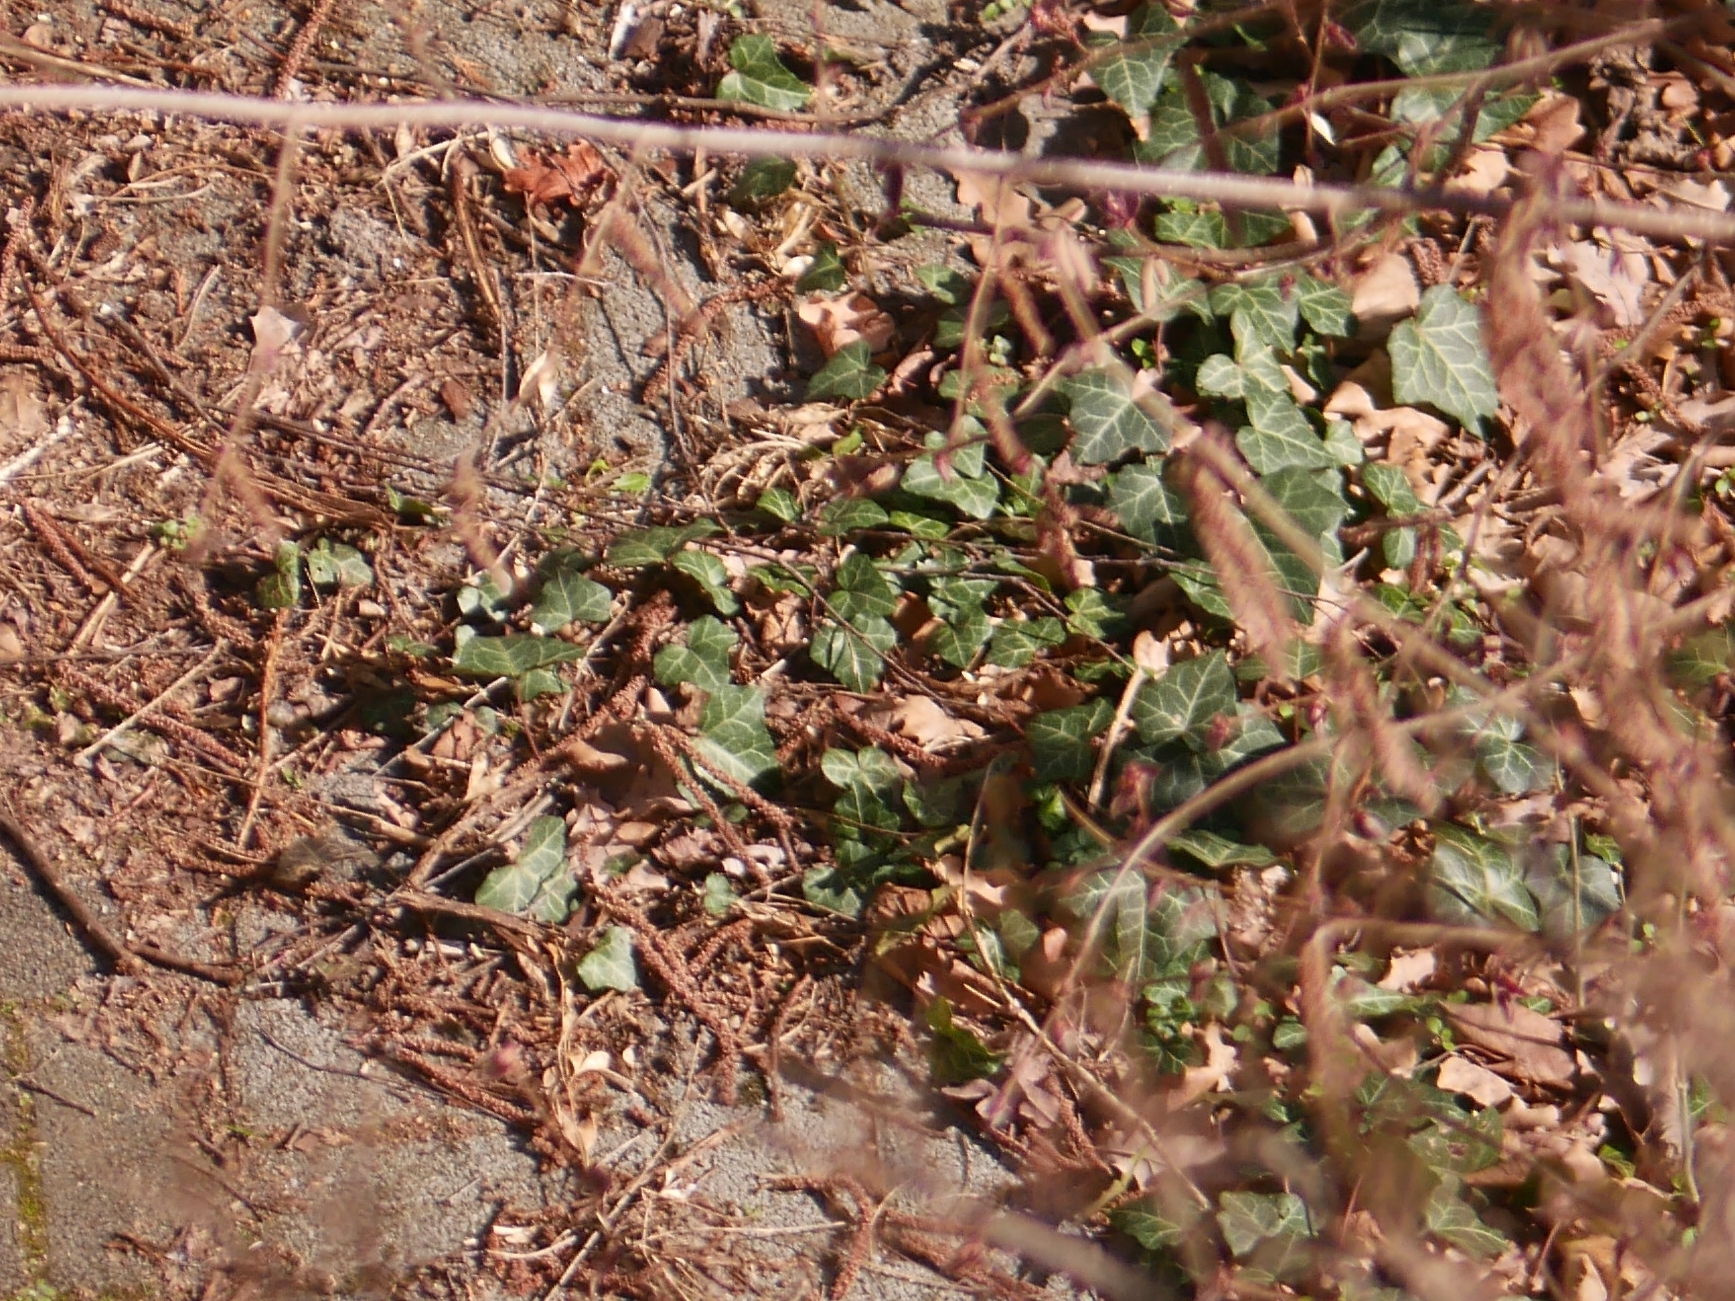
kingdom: Plantae
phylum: Tracheophyta
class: Magnoliopsida
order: Apiales
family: Araliaceae
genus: Hedera
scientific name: Hedera helix
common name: Ivy
